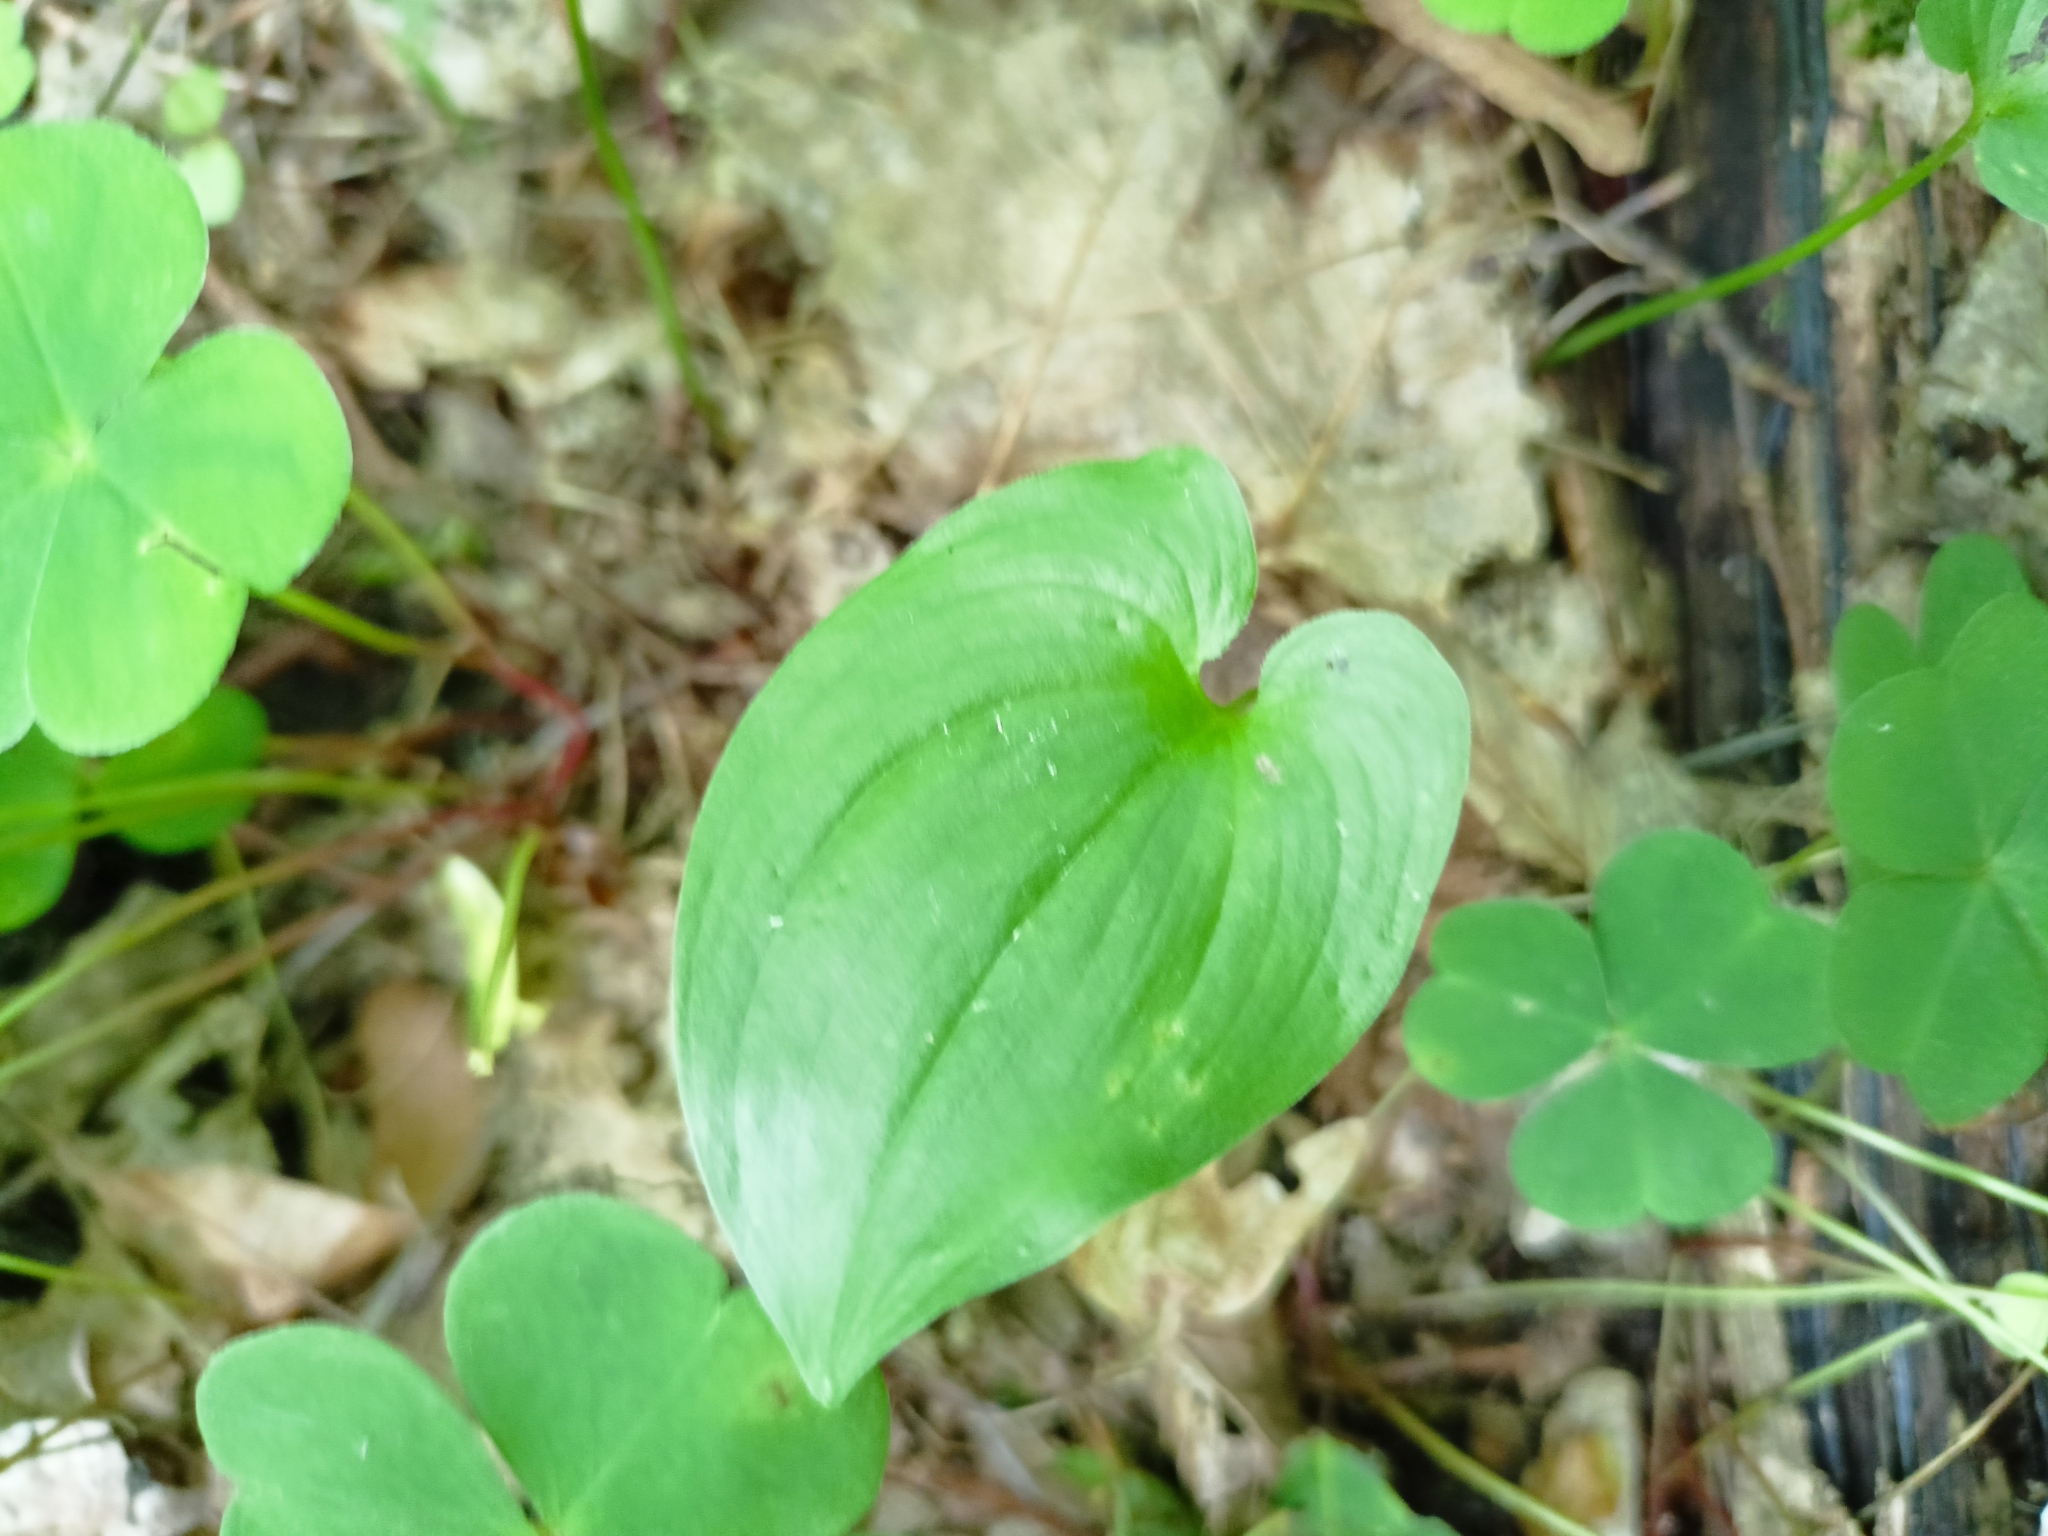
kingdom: Plantae
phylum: Tracheophyta
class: Liliopsida
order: Asparagales
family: Asparagaceae
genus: Maianthemum
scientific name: Maianthemum bifolium
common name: May lily
